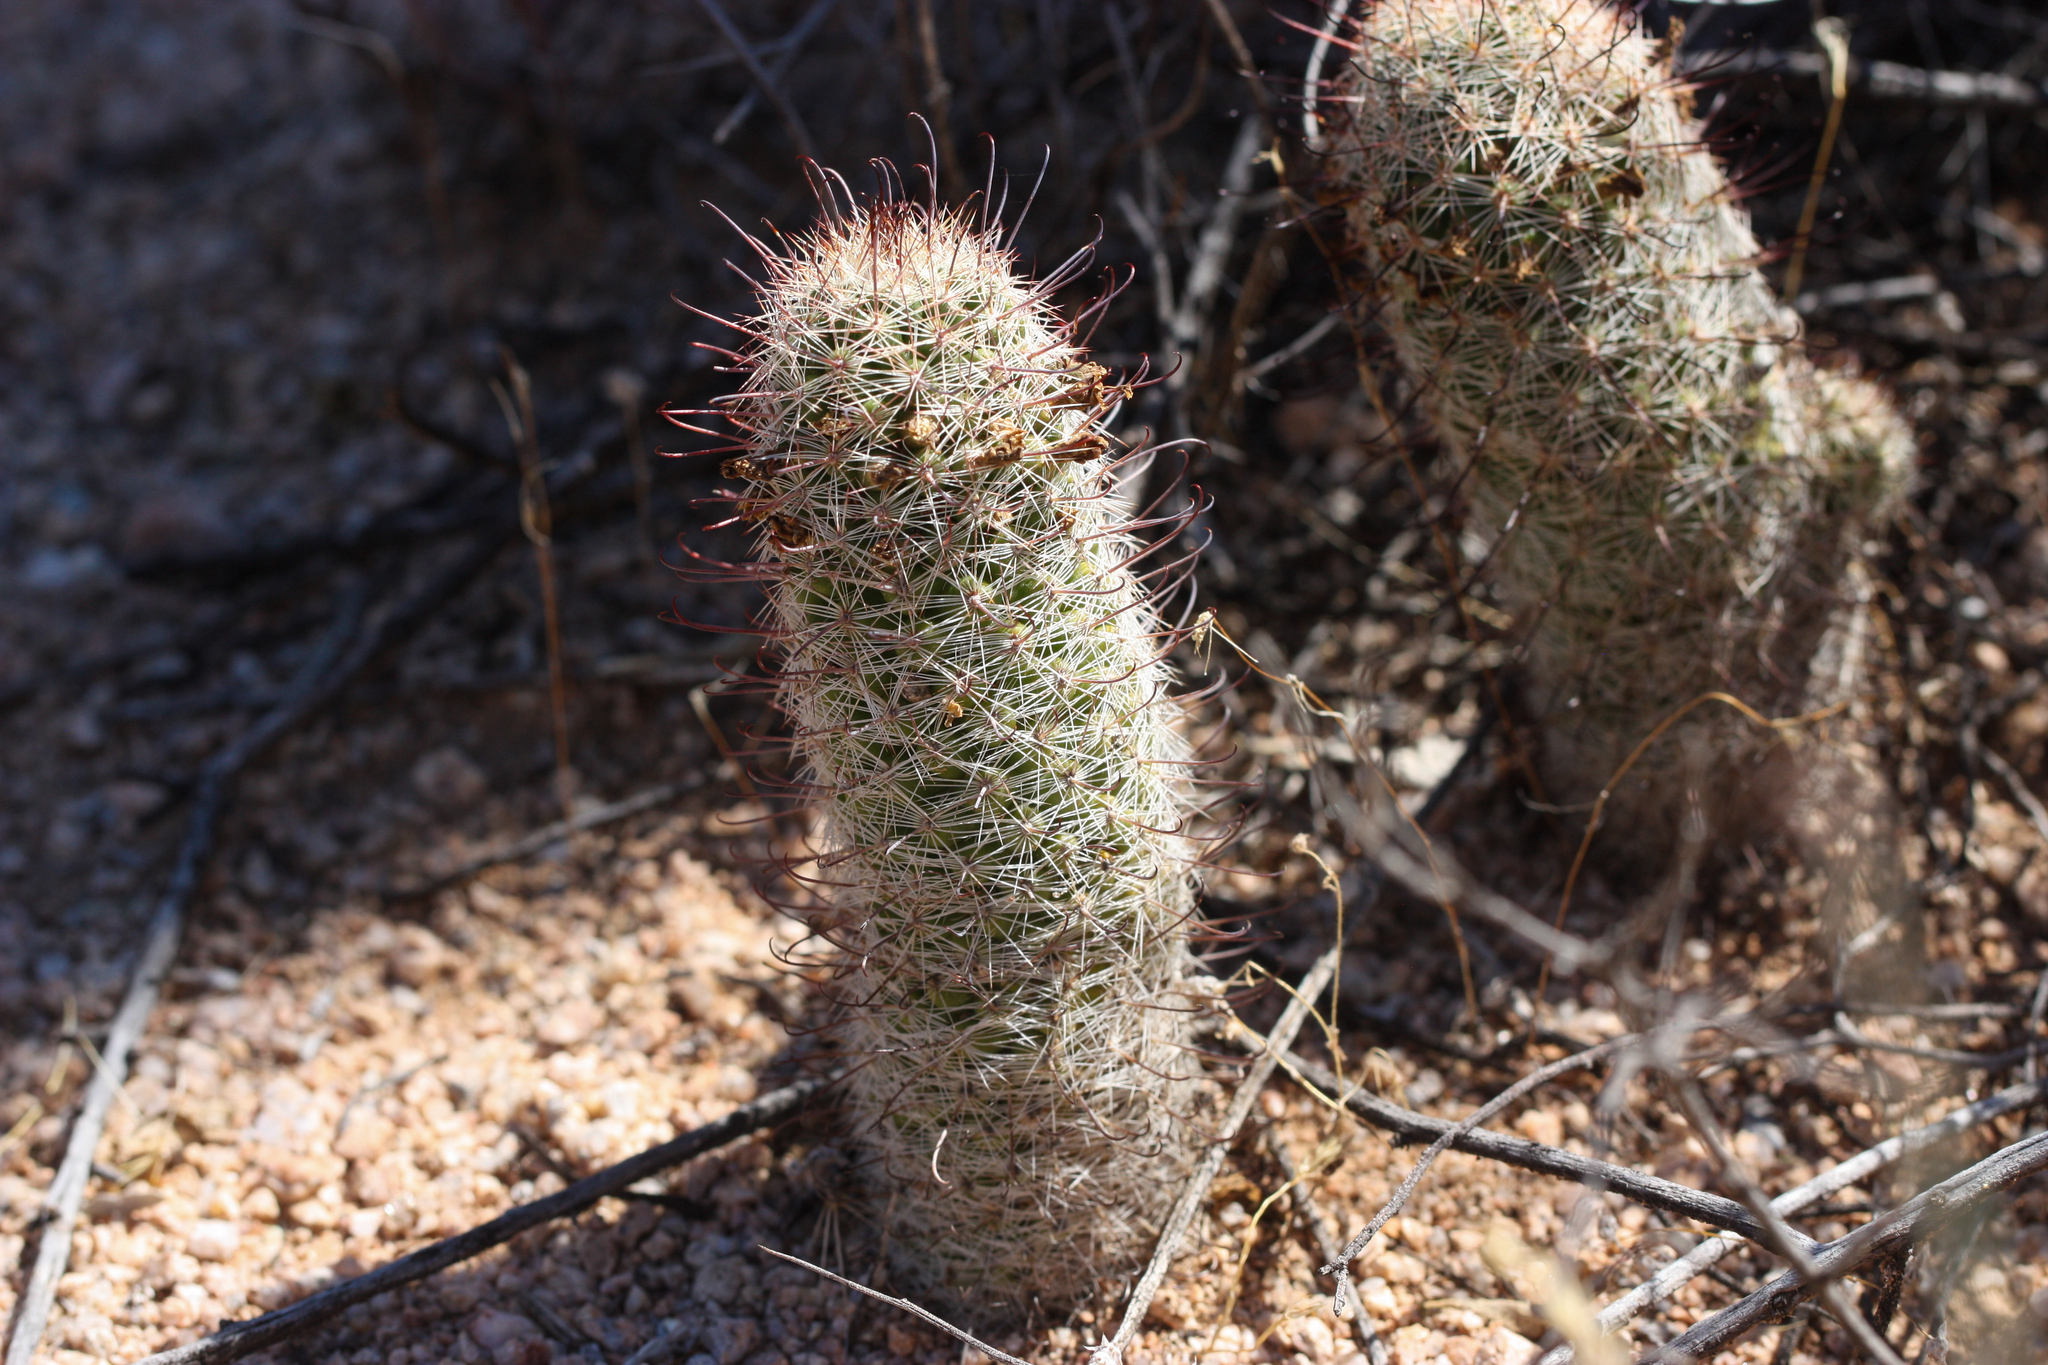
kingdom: Plantae
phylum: Tracheophyta
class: Magnoliopsida
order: Caryophyllales
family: Cactaceae
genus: Cochemiea
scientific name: Cochemiea grahamii
